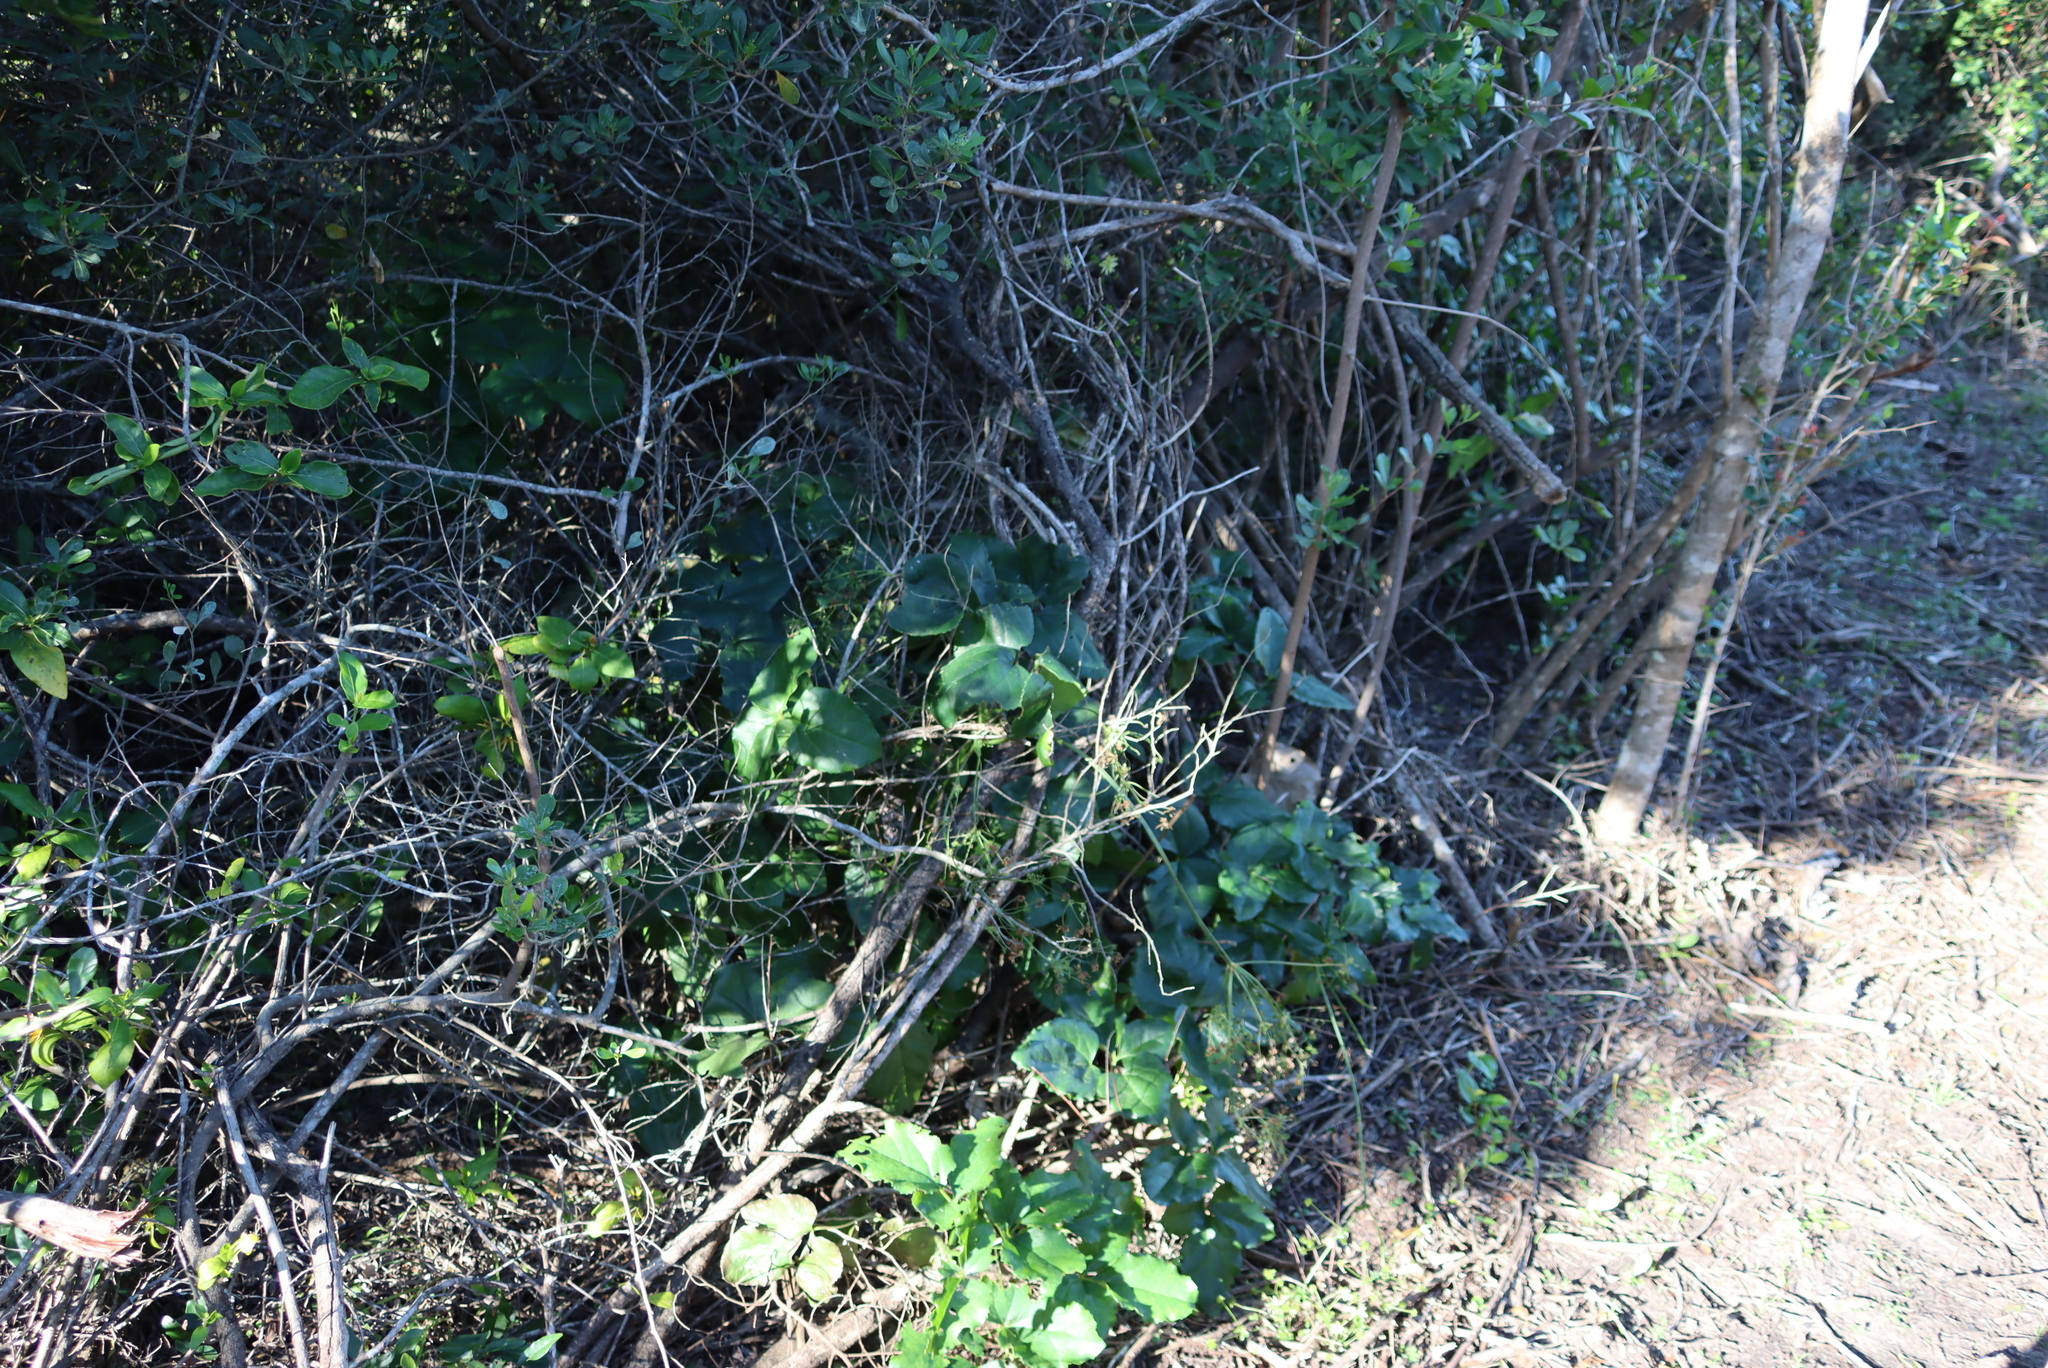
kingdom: Plantae
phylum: Tracheophyta
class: Magnoliopsida
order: Ranunculales
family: Ranunculaceae
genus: Knowltonia
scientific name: Knowltonia vesicatoria
